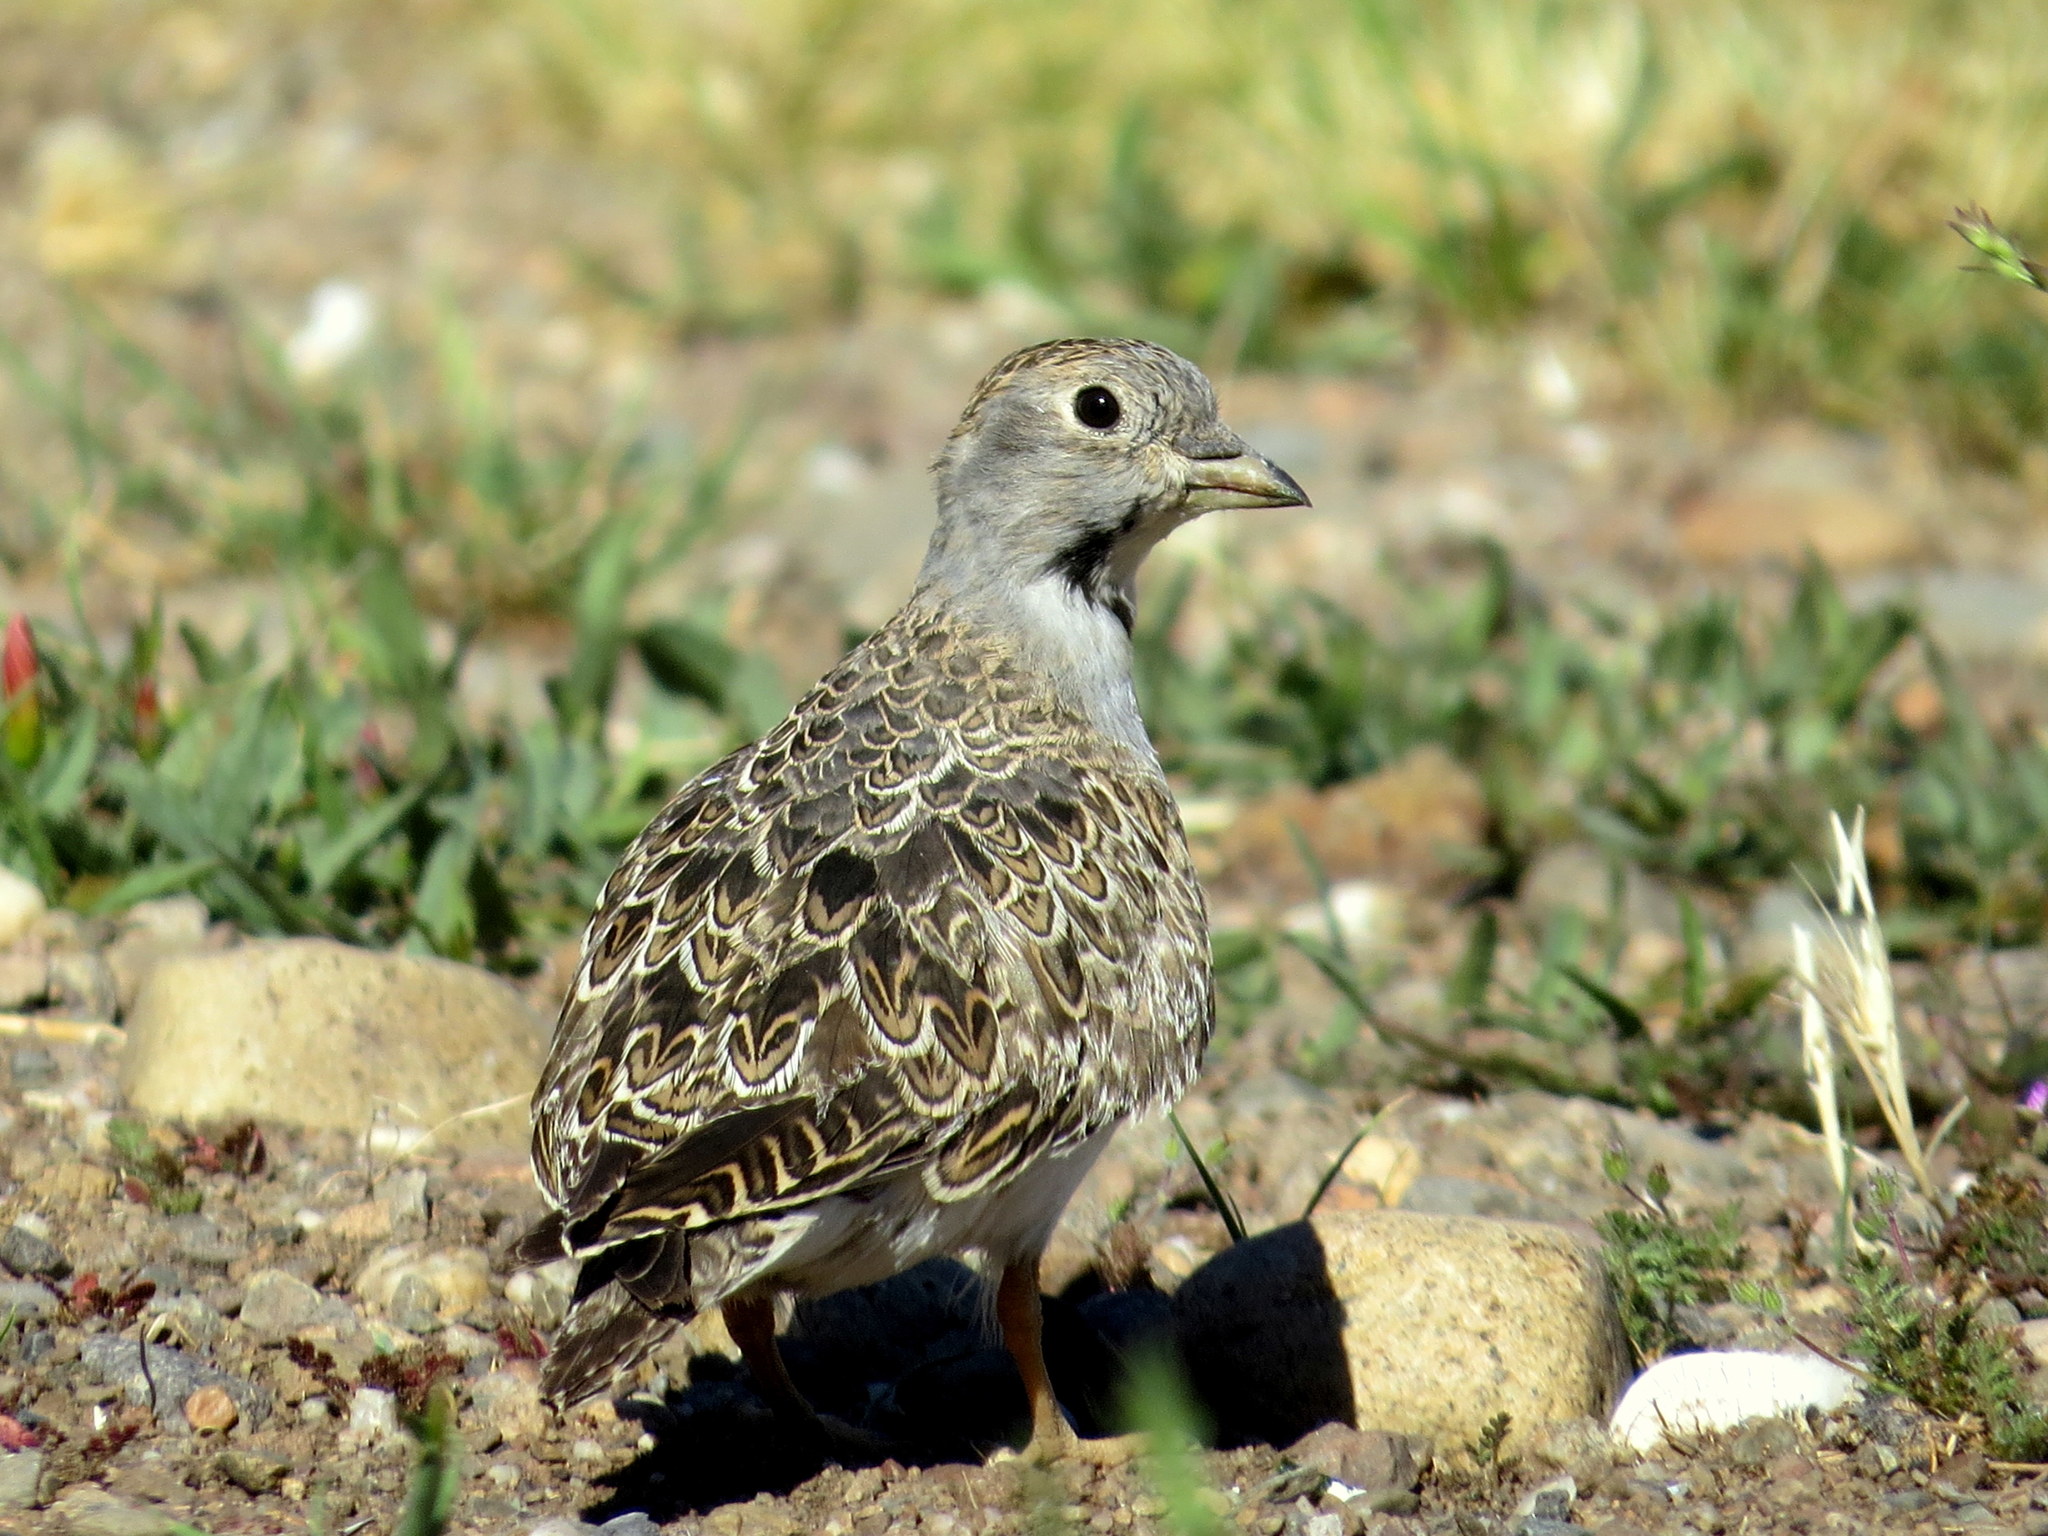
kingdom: Animalia
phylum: Chordata
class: Aves
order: Charadriiformes
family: Thinocoridae
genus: Thinocorus
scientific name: Thinocorus rumicivorus
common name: Least seedsnipe
